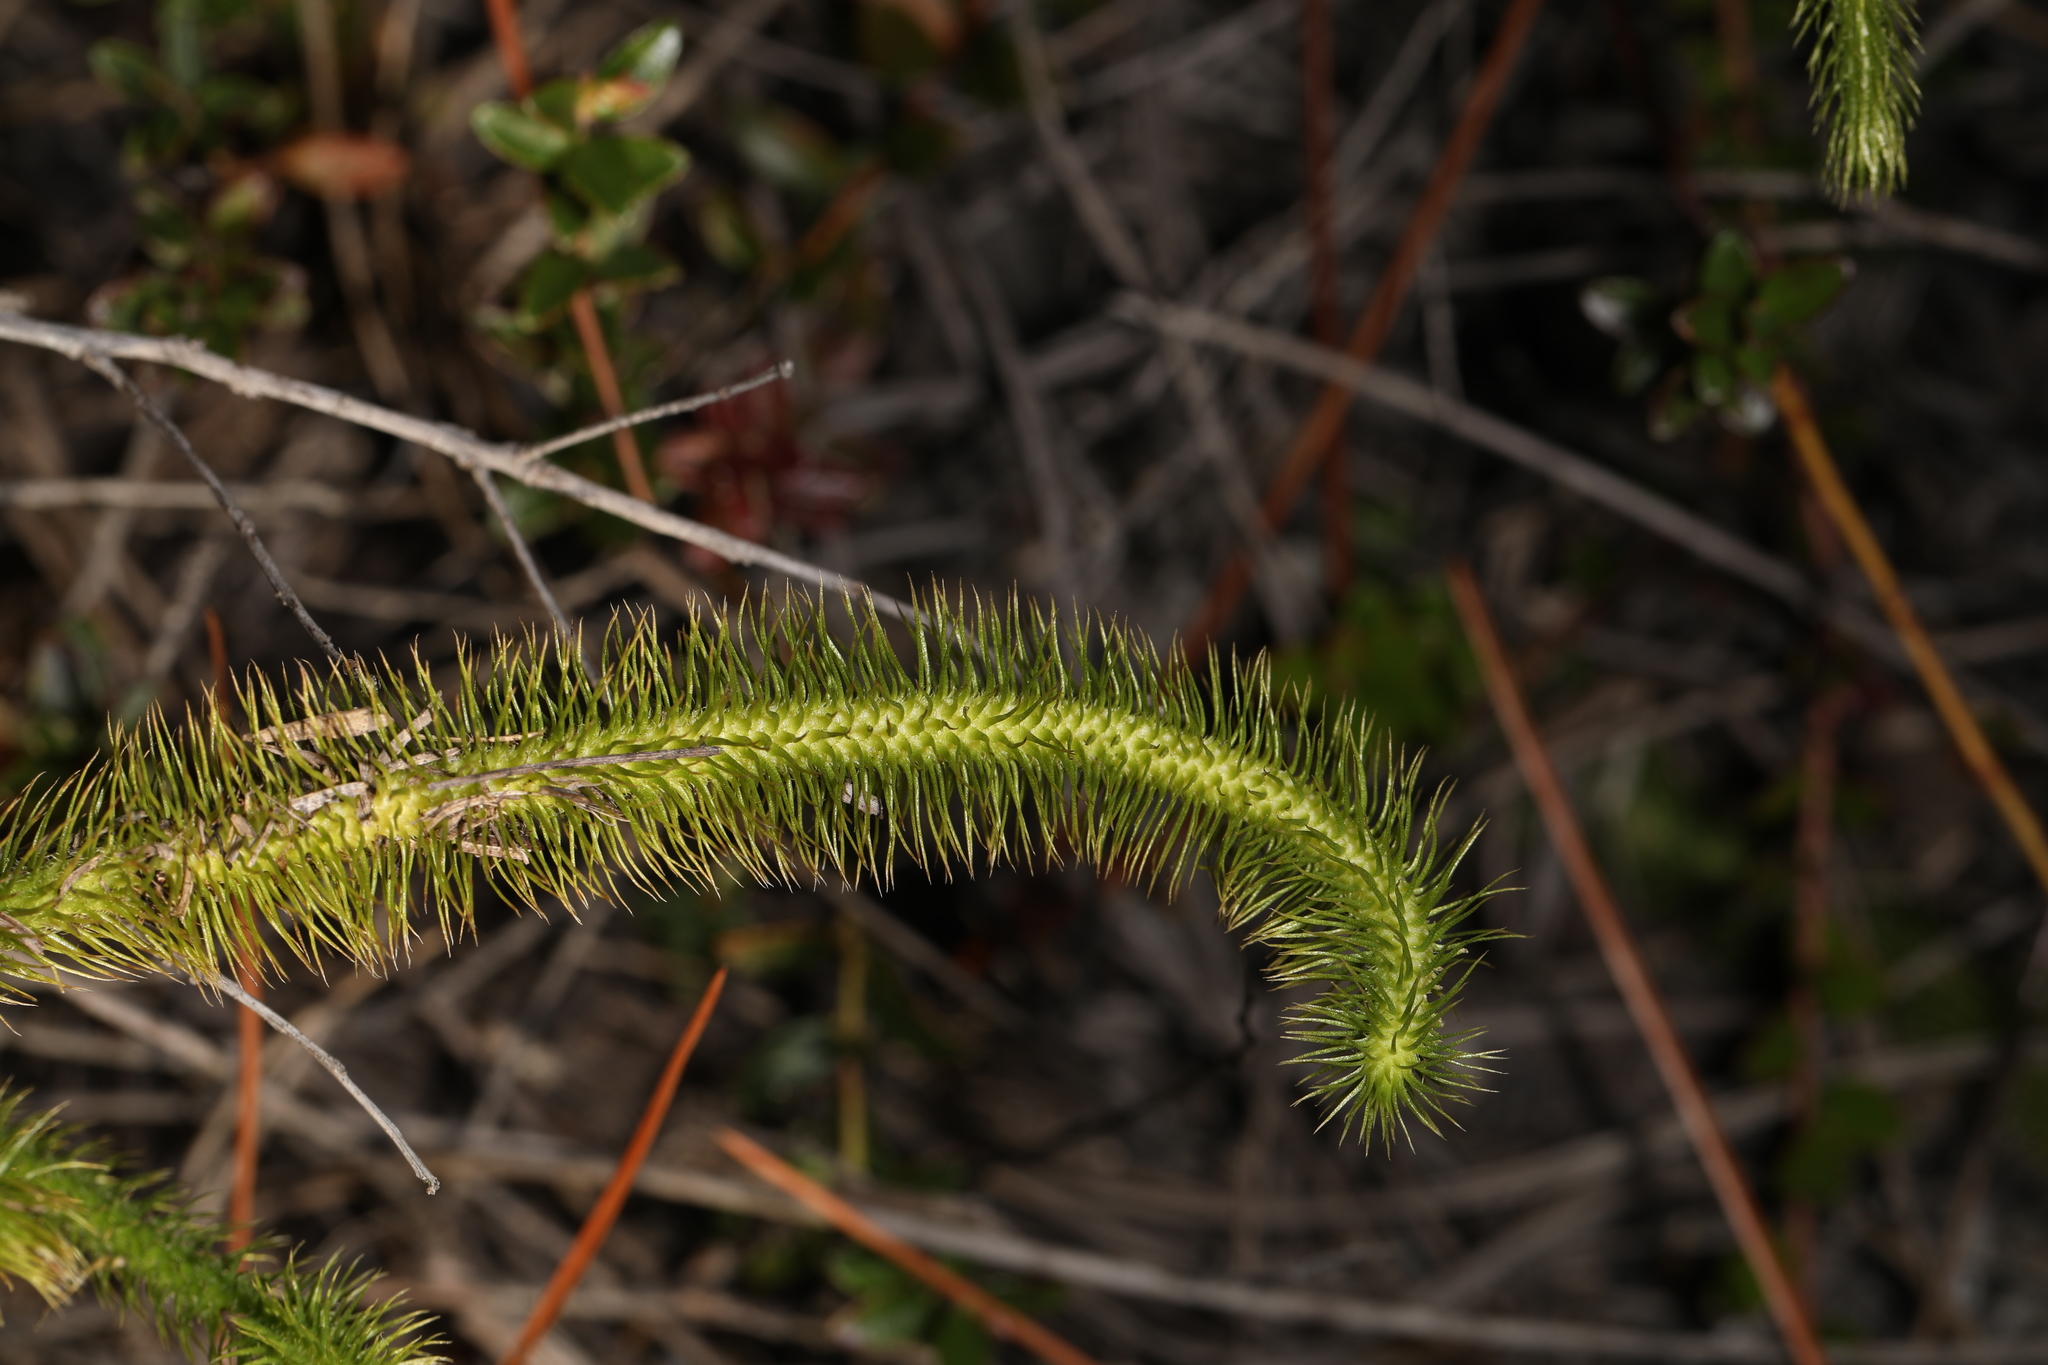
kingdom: Plantae
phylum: Tracheophyta
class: Lycopodiopsida
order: Lycopodiales
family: Lycopodiaceae
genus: Lycopodiella
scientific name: Lycopodiella alopecuroides
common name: Foxtail clubmoss
